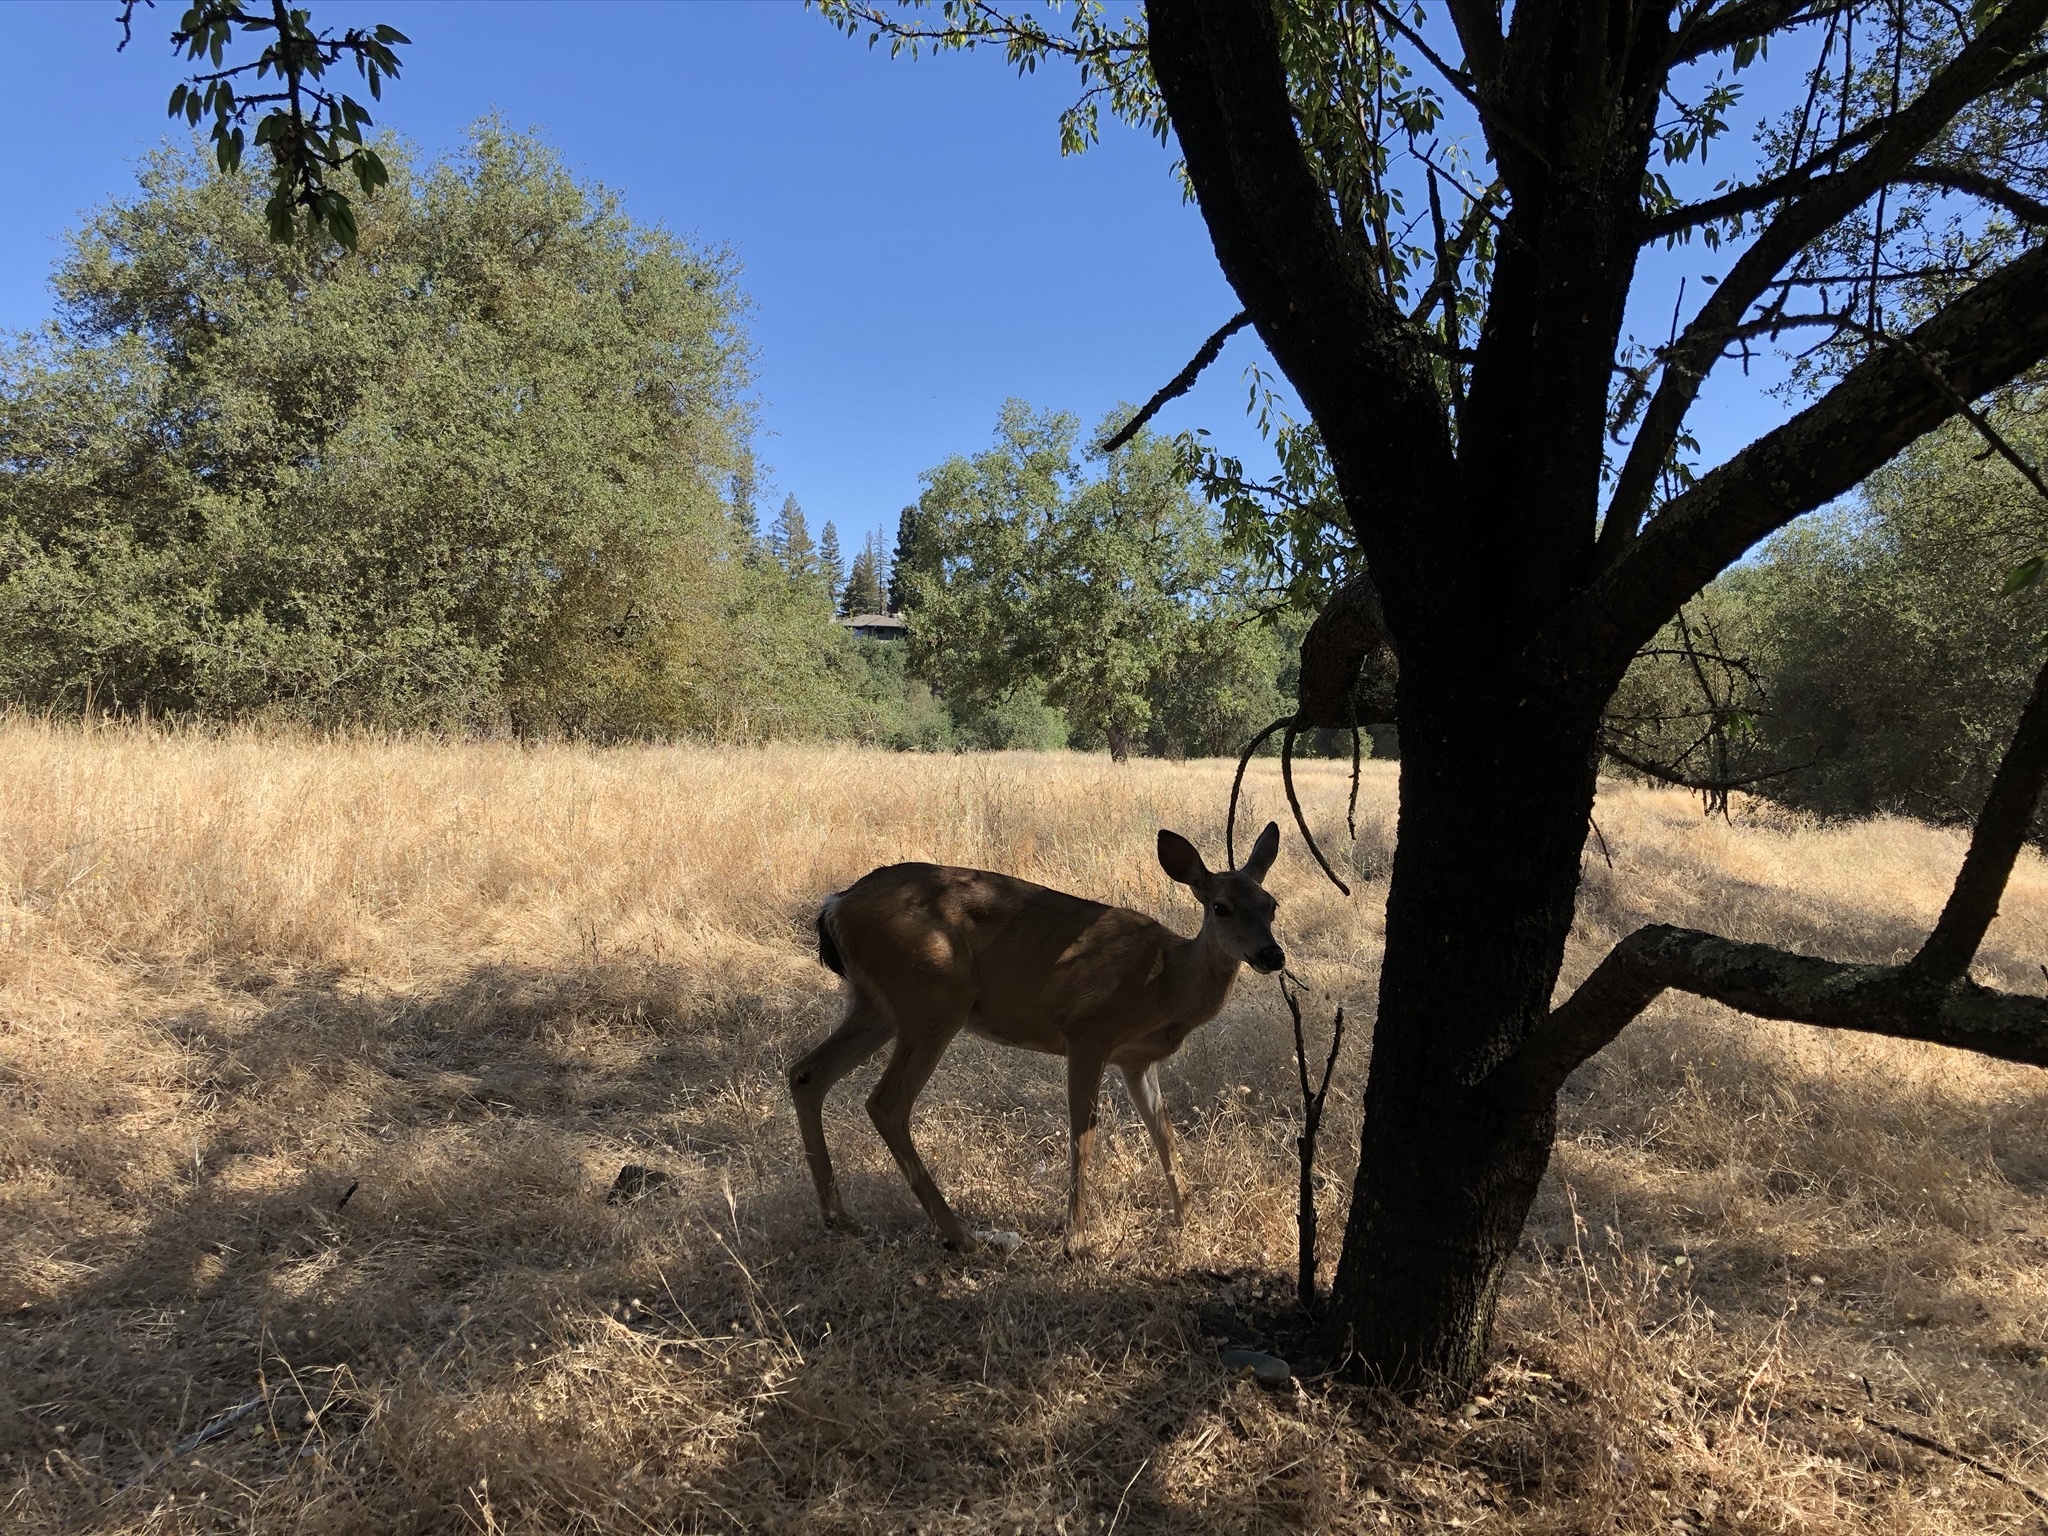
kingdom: Animalia
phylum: Chordata
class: Mammalia
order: Artiodactyla
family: Cervidae
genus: Odocoileus
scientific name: Odocoileus hemionus
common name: Mule deer
